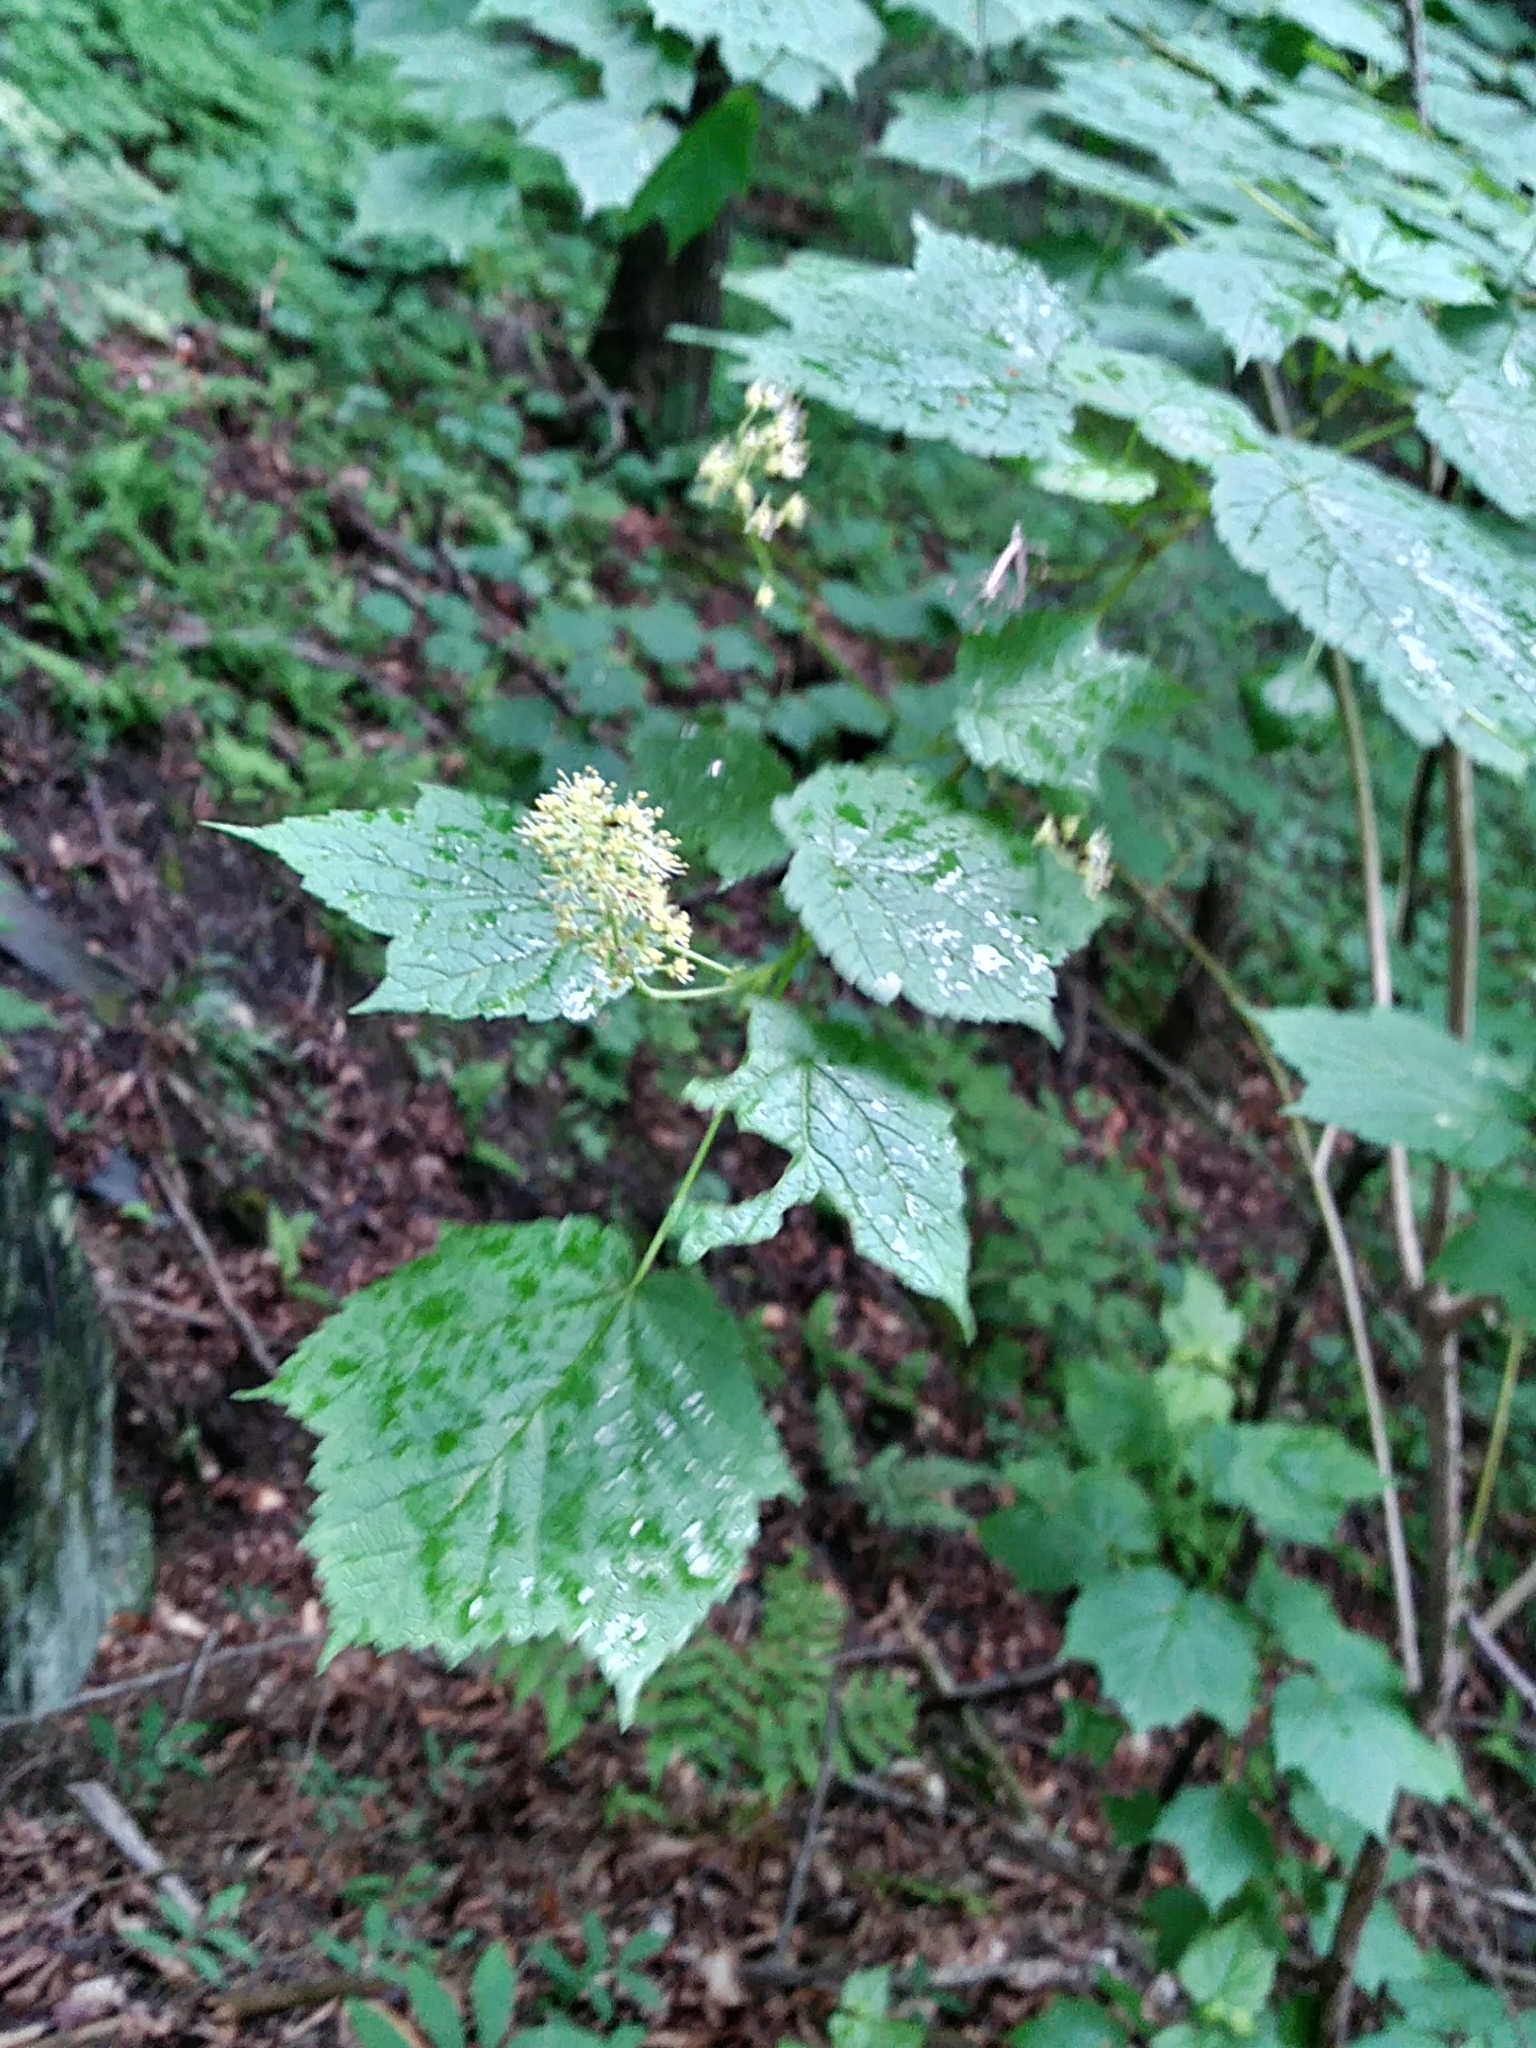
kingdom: Plantae
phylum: Tracheophyta
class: Magnoliopsida
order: Sapindales
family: Sapindaceae
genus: Acer
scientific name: Acer spicatum
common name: Mountain maple
